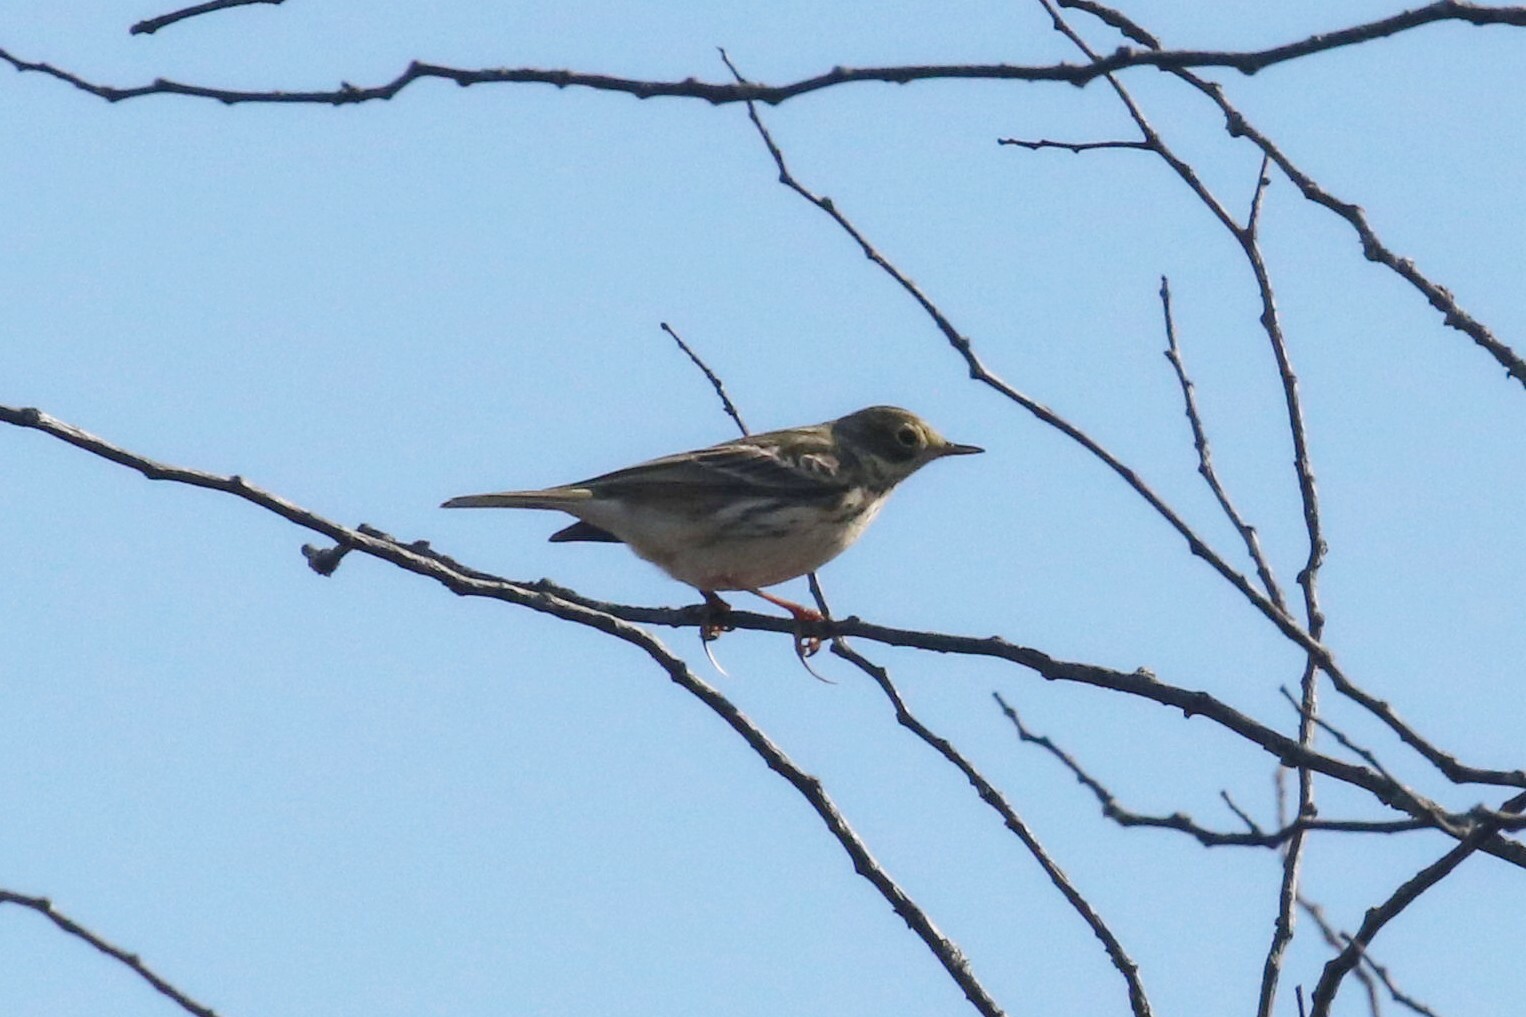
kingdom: Animalia
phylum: Chordata
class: Aves
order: Passeriformes
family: Motacillidae
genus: Anthus
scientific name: Anthus pratensis
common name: Meadow pipit
